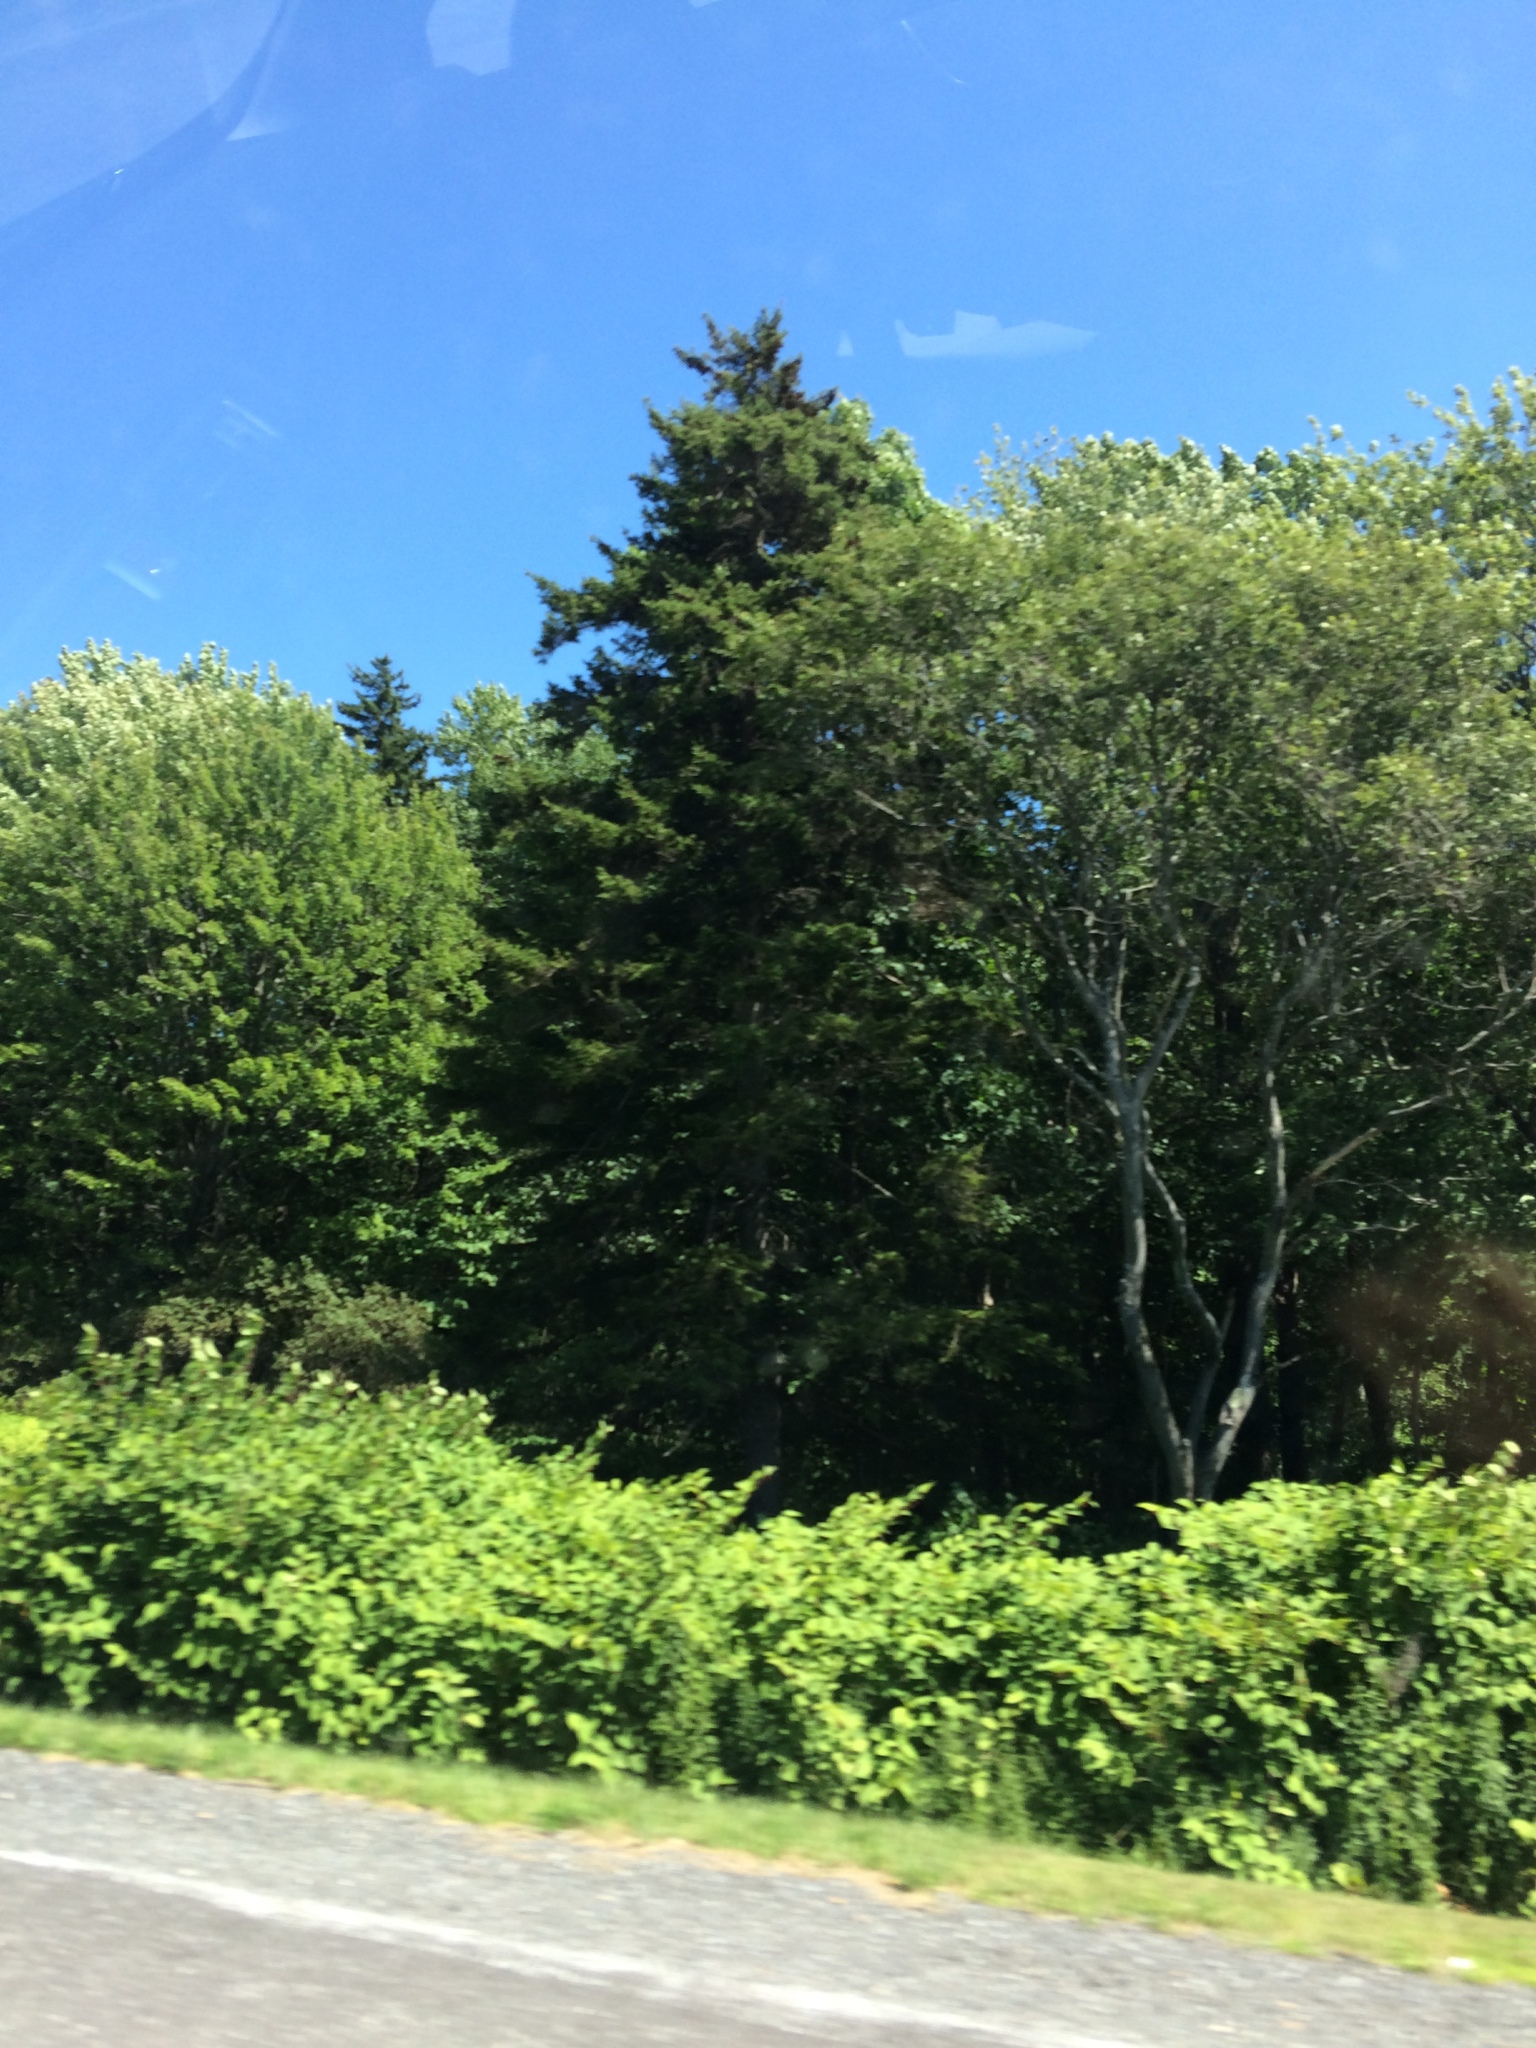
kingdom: Plantae
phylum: Tracheophyta
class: Magnoliopsida
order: Caryophyllales
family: Polygonaceae
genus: Reynoutria
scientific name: Reynoutria japonica
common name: Japanese knotweed
